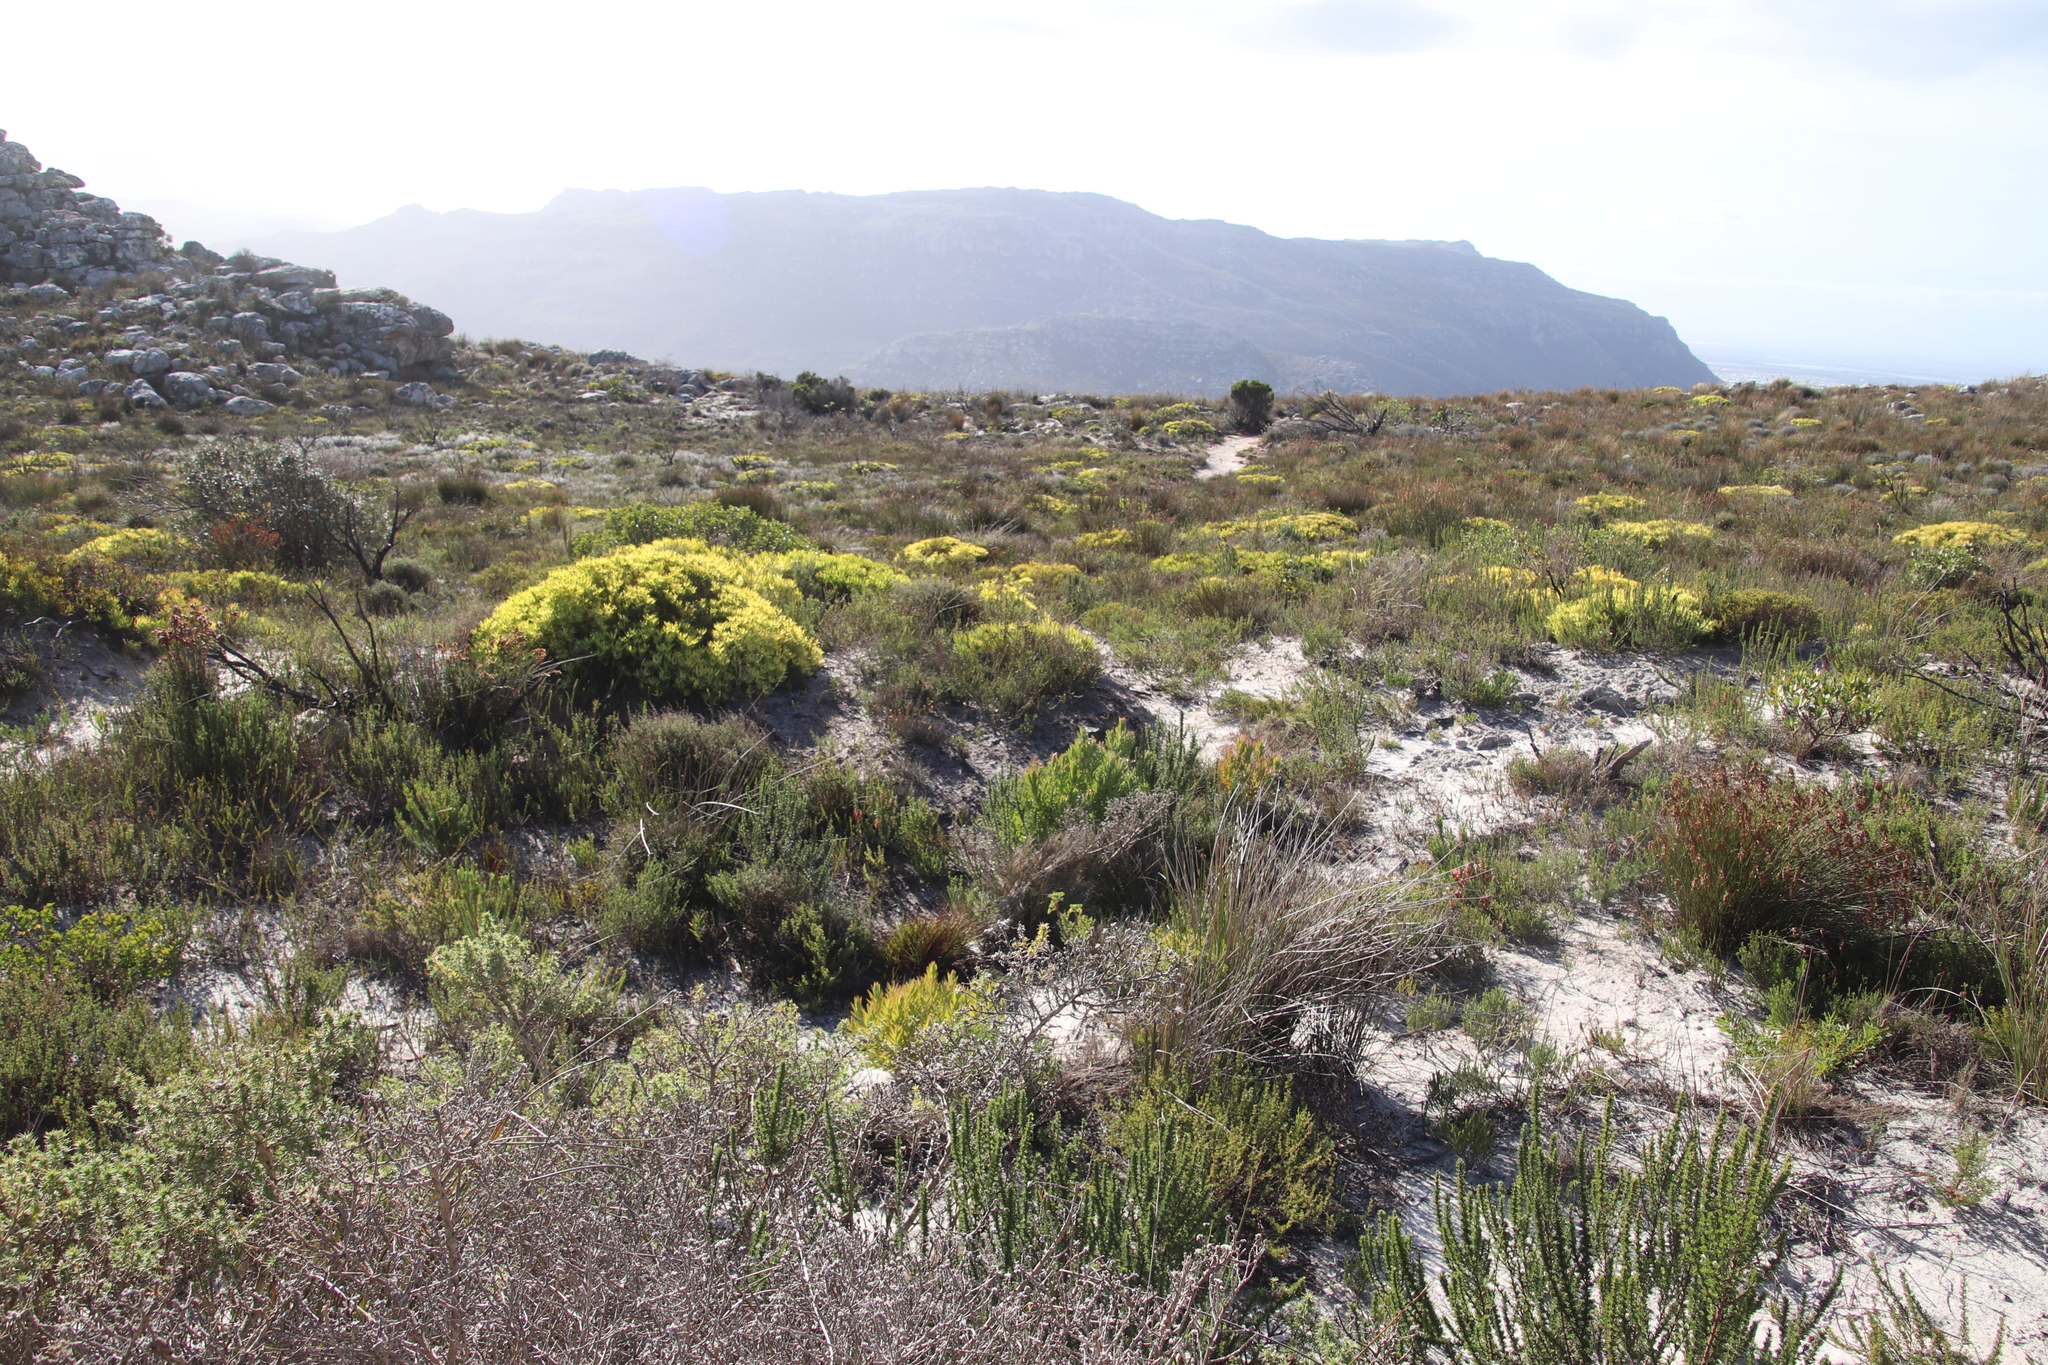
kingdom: Plantae
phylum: Tracheophyta
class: Magnoliopsida
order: Proteales
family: Proteaceae
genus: Leucadendron
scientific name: Leucadendron salignum
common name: Common sunshine conebush
